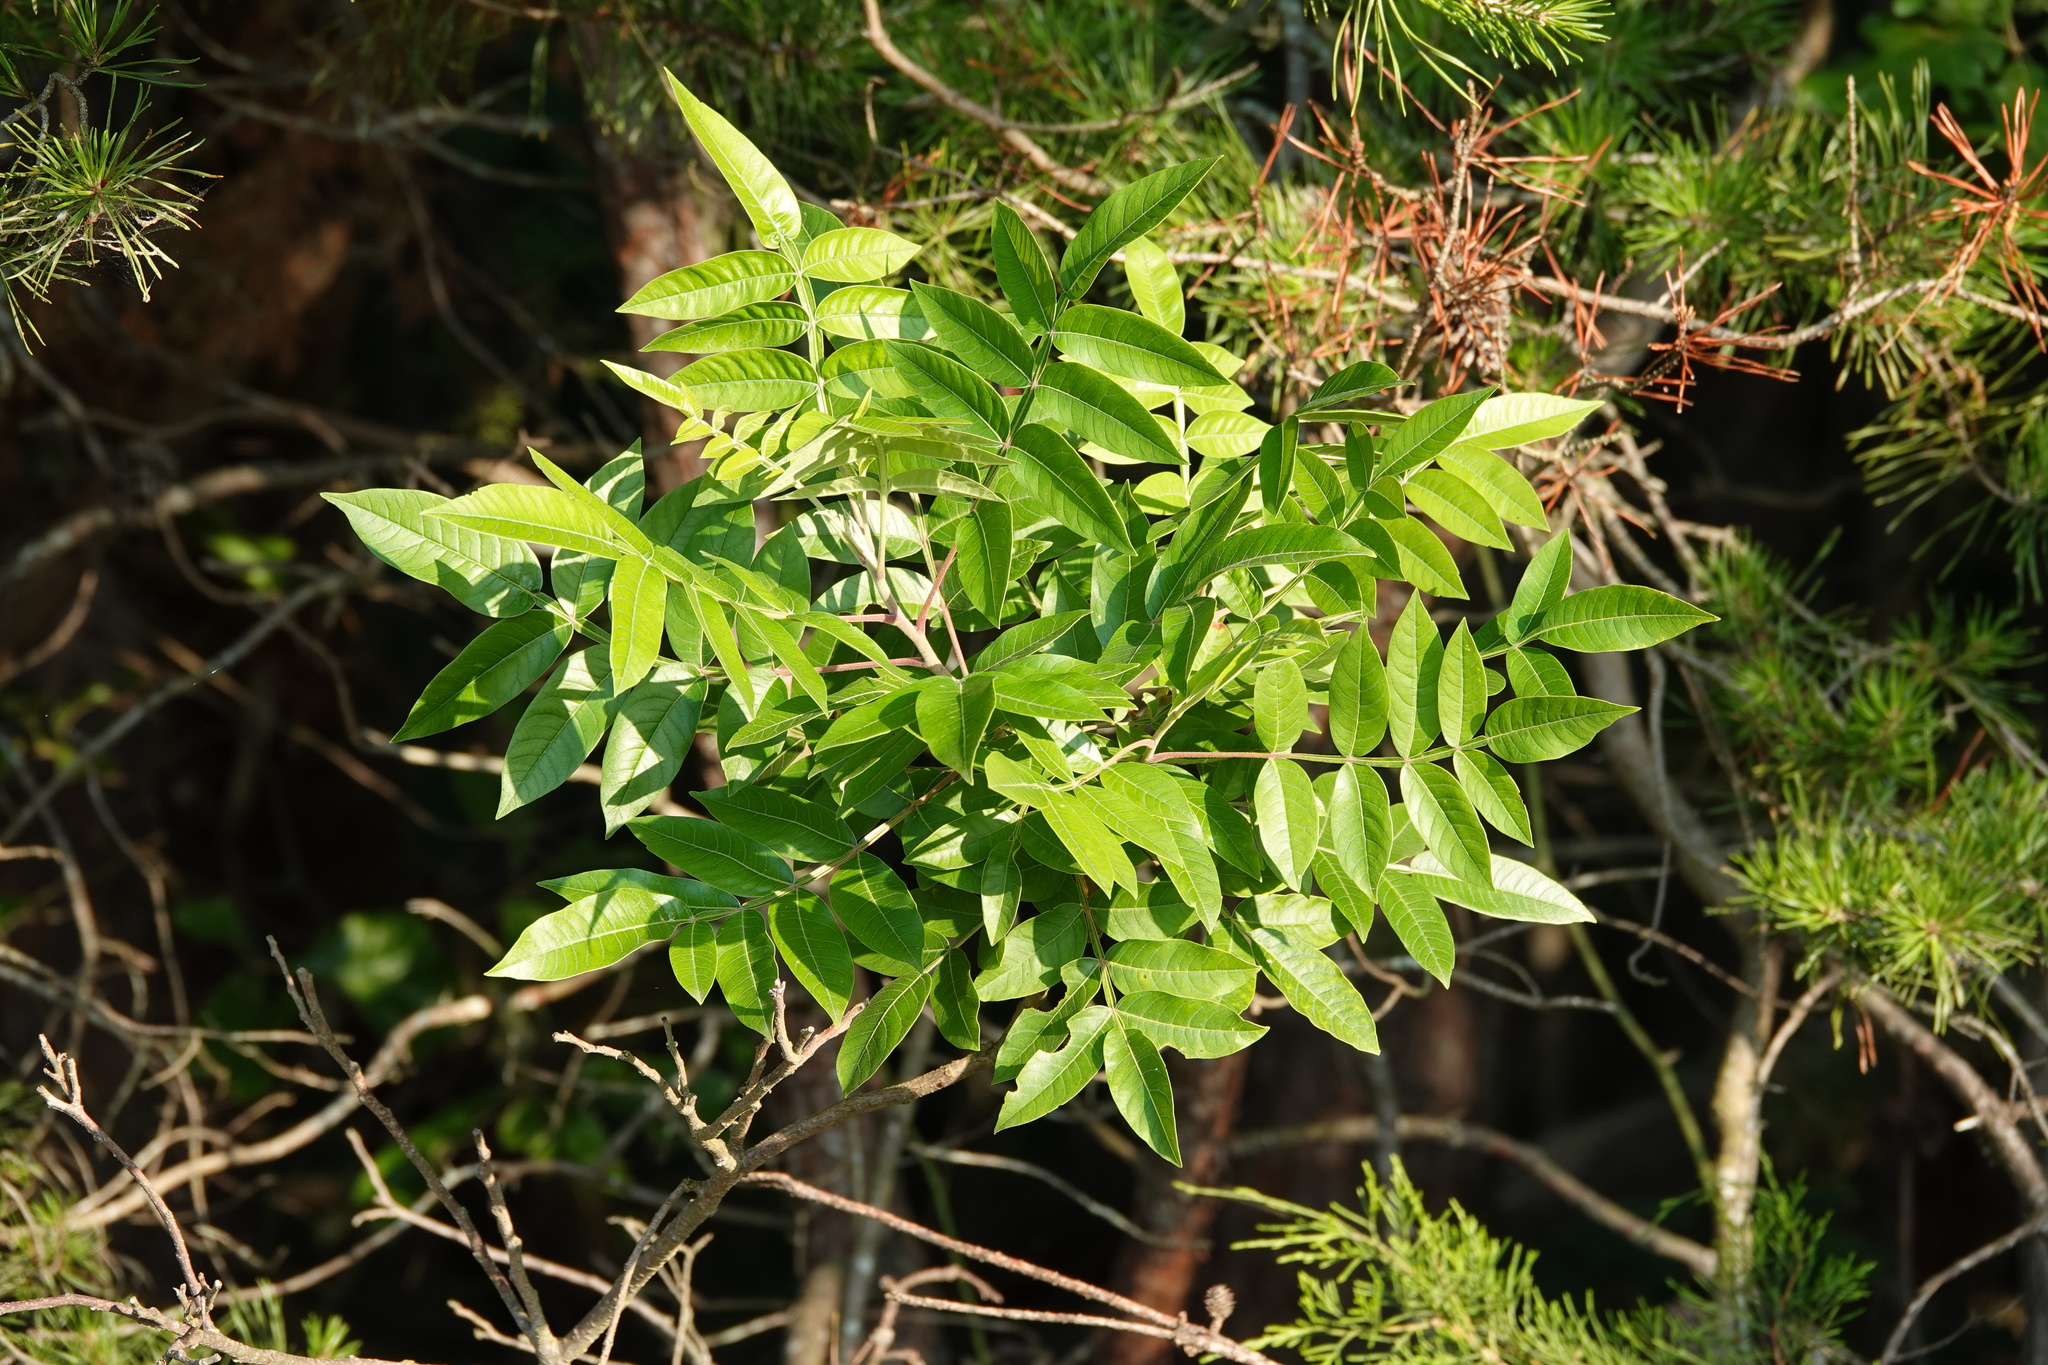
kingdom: Plantae
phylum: Tracheophyta
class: Magnoliopsida
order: Sapindales
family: Anacardiaceae
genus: Rhus
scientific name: Rhus copallina
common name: Shining sumac
